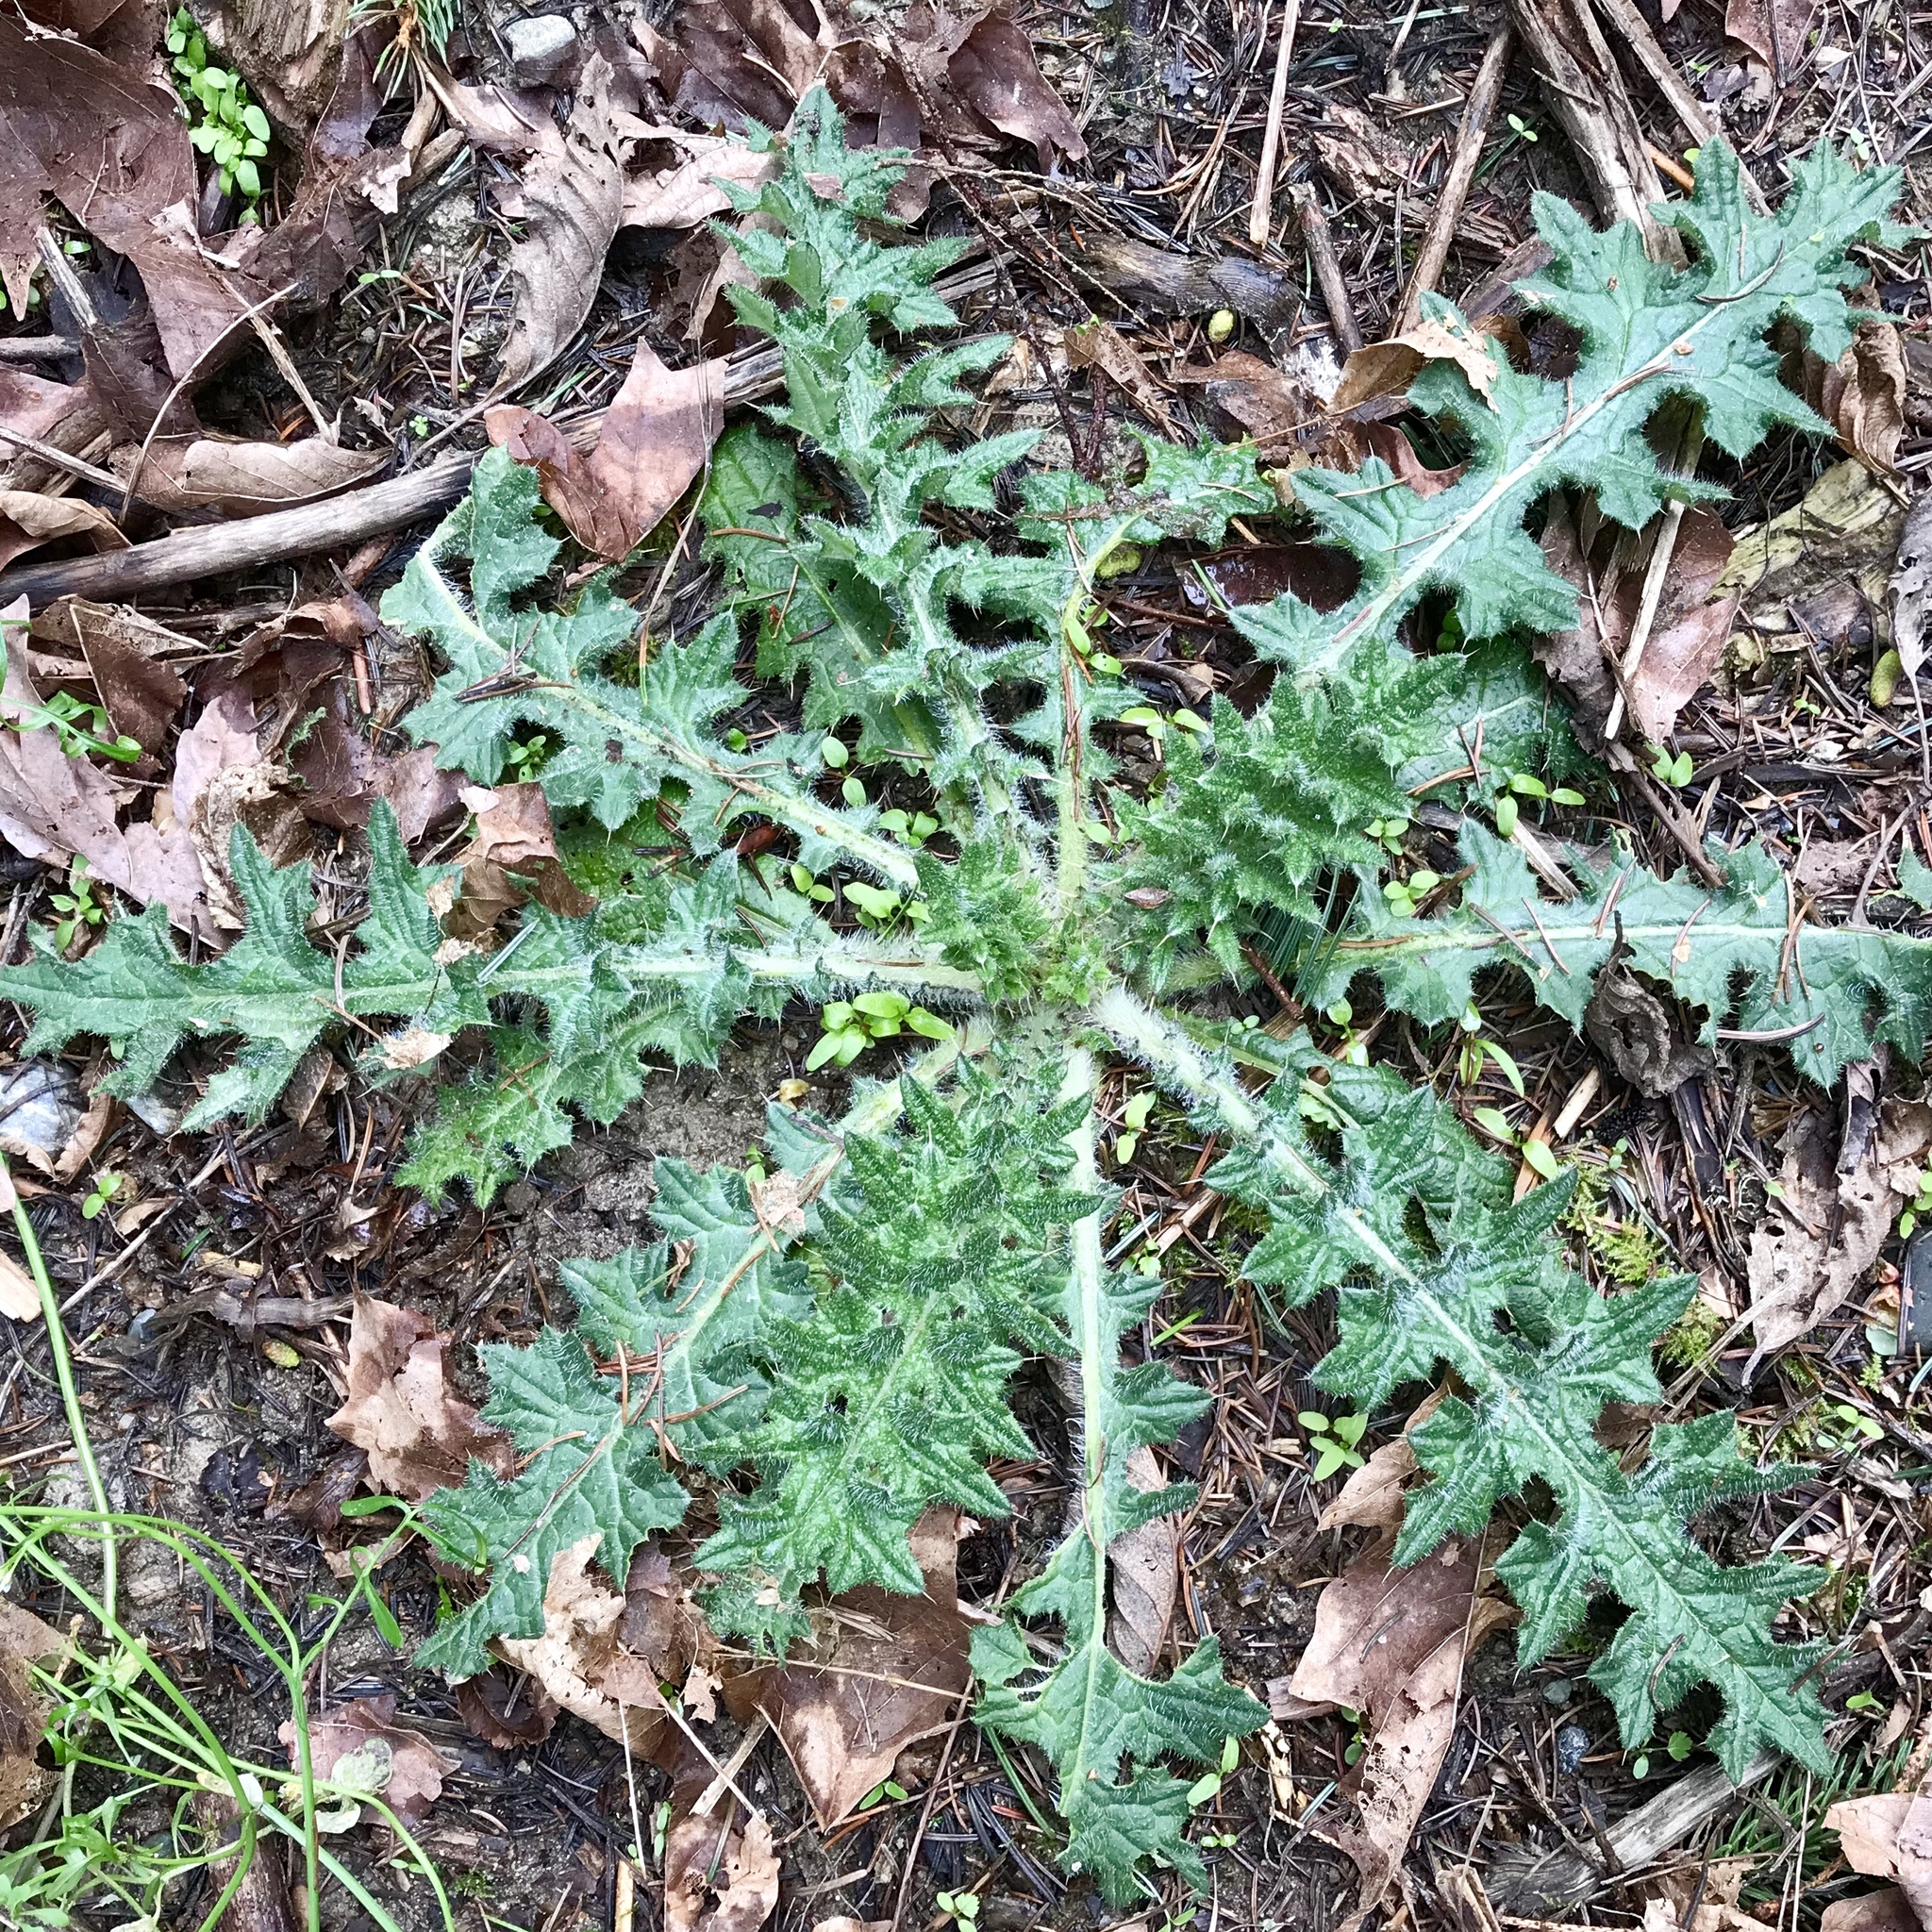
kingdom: Plantae
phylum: Tracheophyta
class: Magnoliopsida
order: Asterales
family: Asteraceae
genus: Cirsium
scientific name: Cirsium vulgare
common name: Bull thistle
